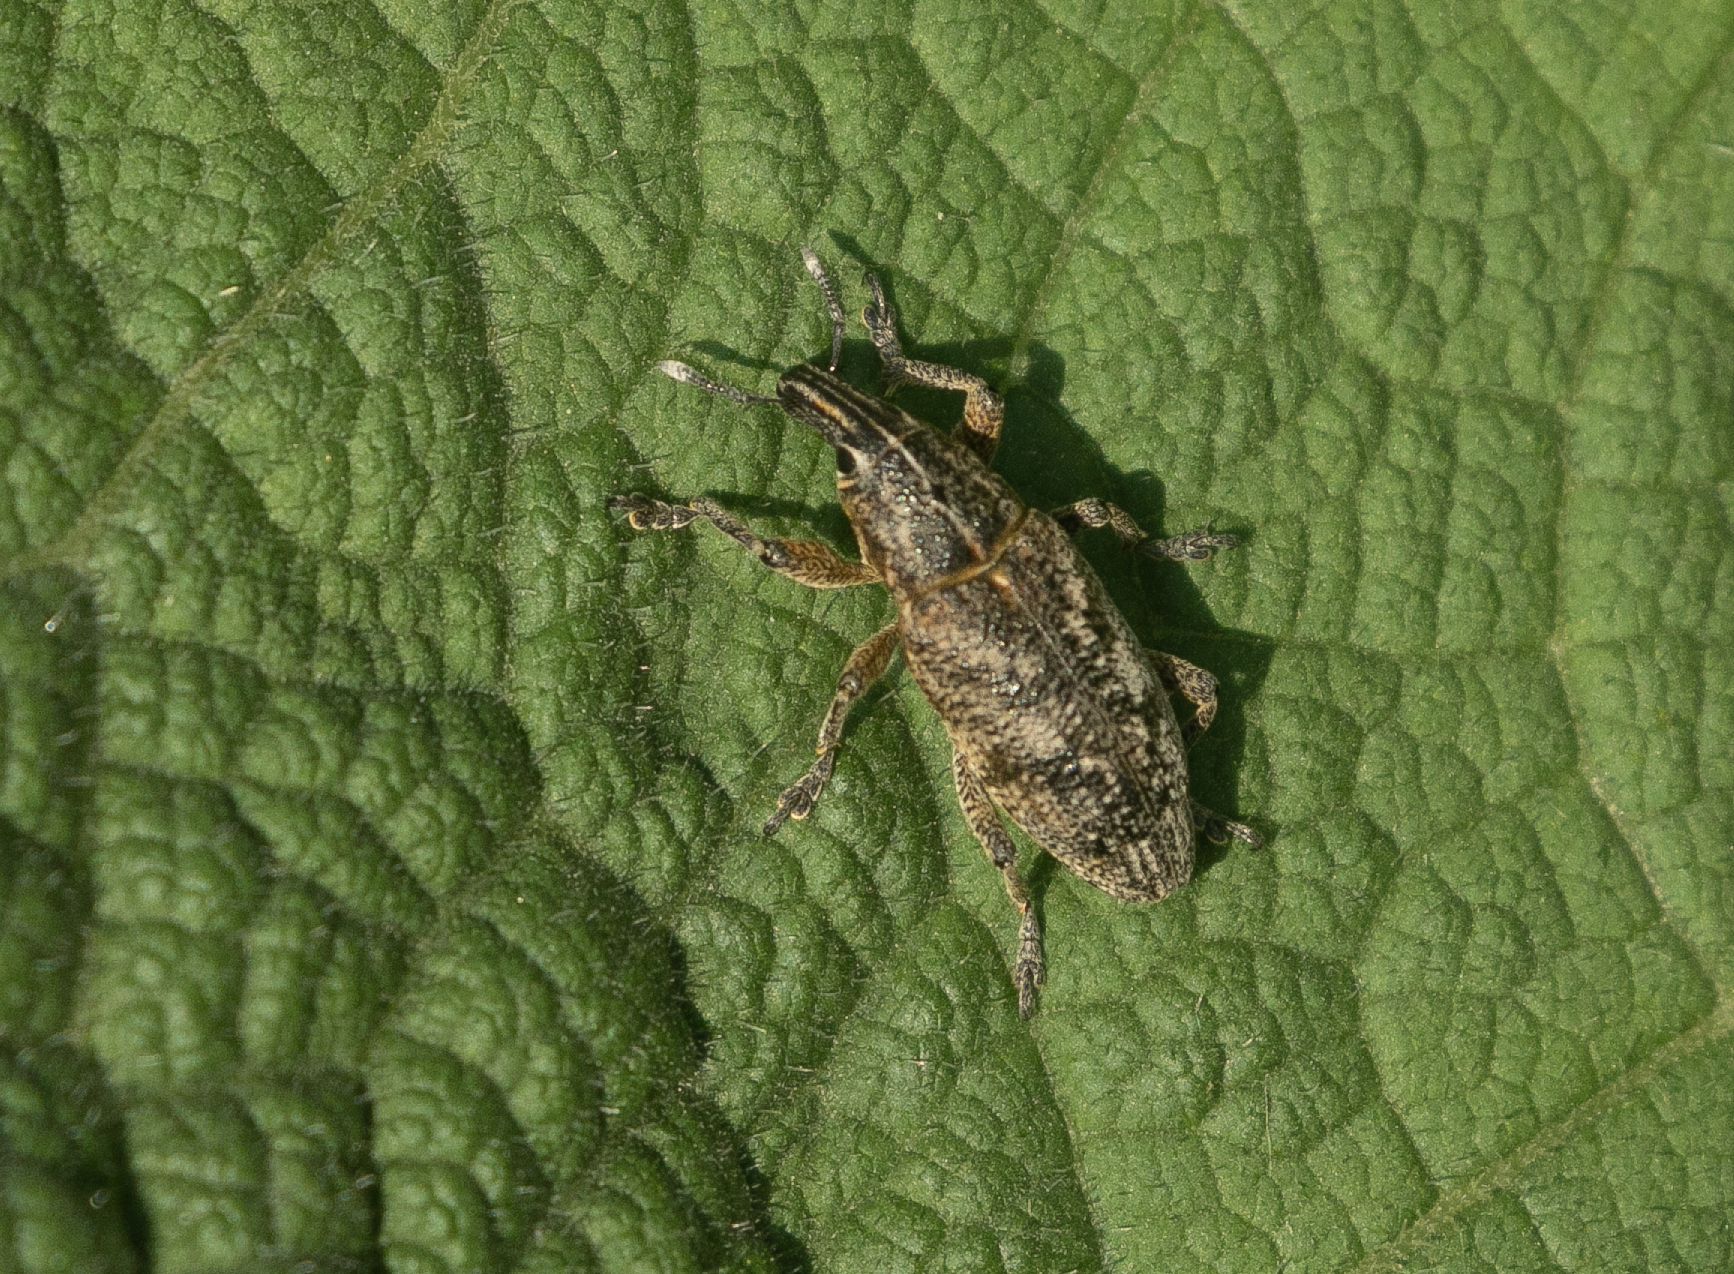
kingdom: Animalia
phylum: Arthropoda
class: Insecta
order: Coleoptera
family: Curculionidae
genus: Cleonis
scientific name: Cleonis pigra
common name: Large thistle weevil
